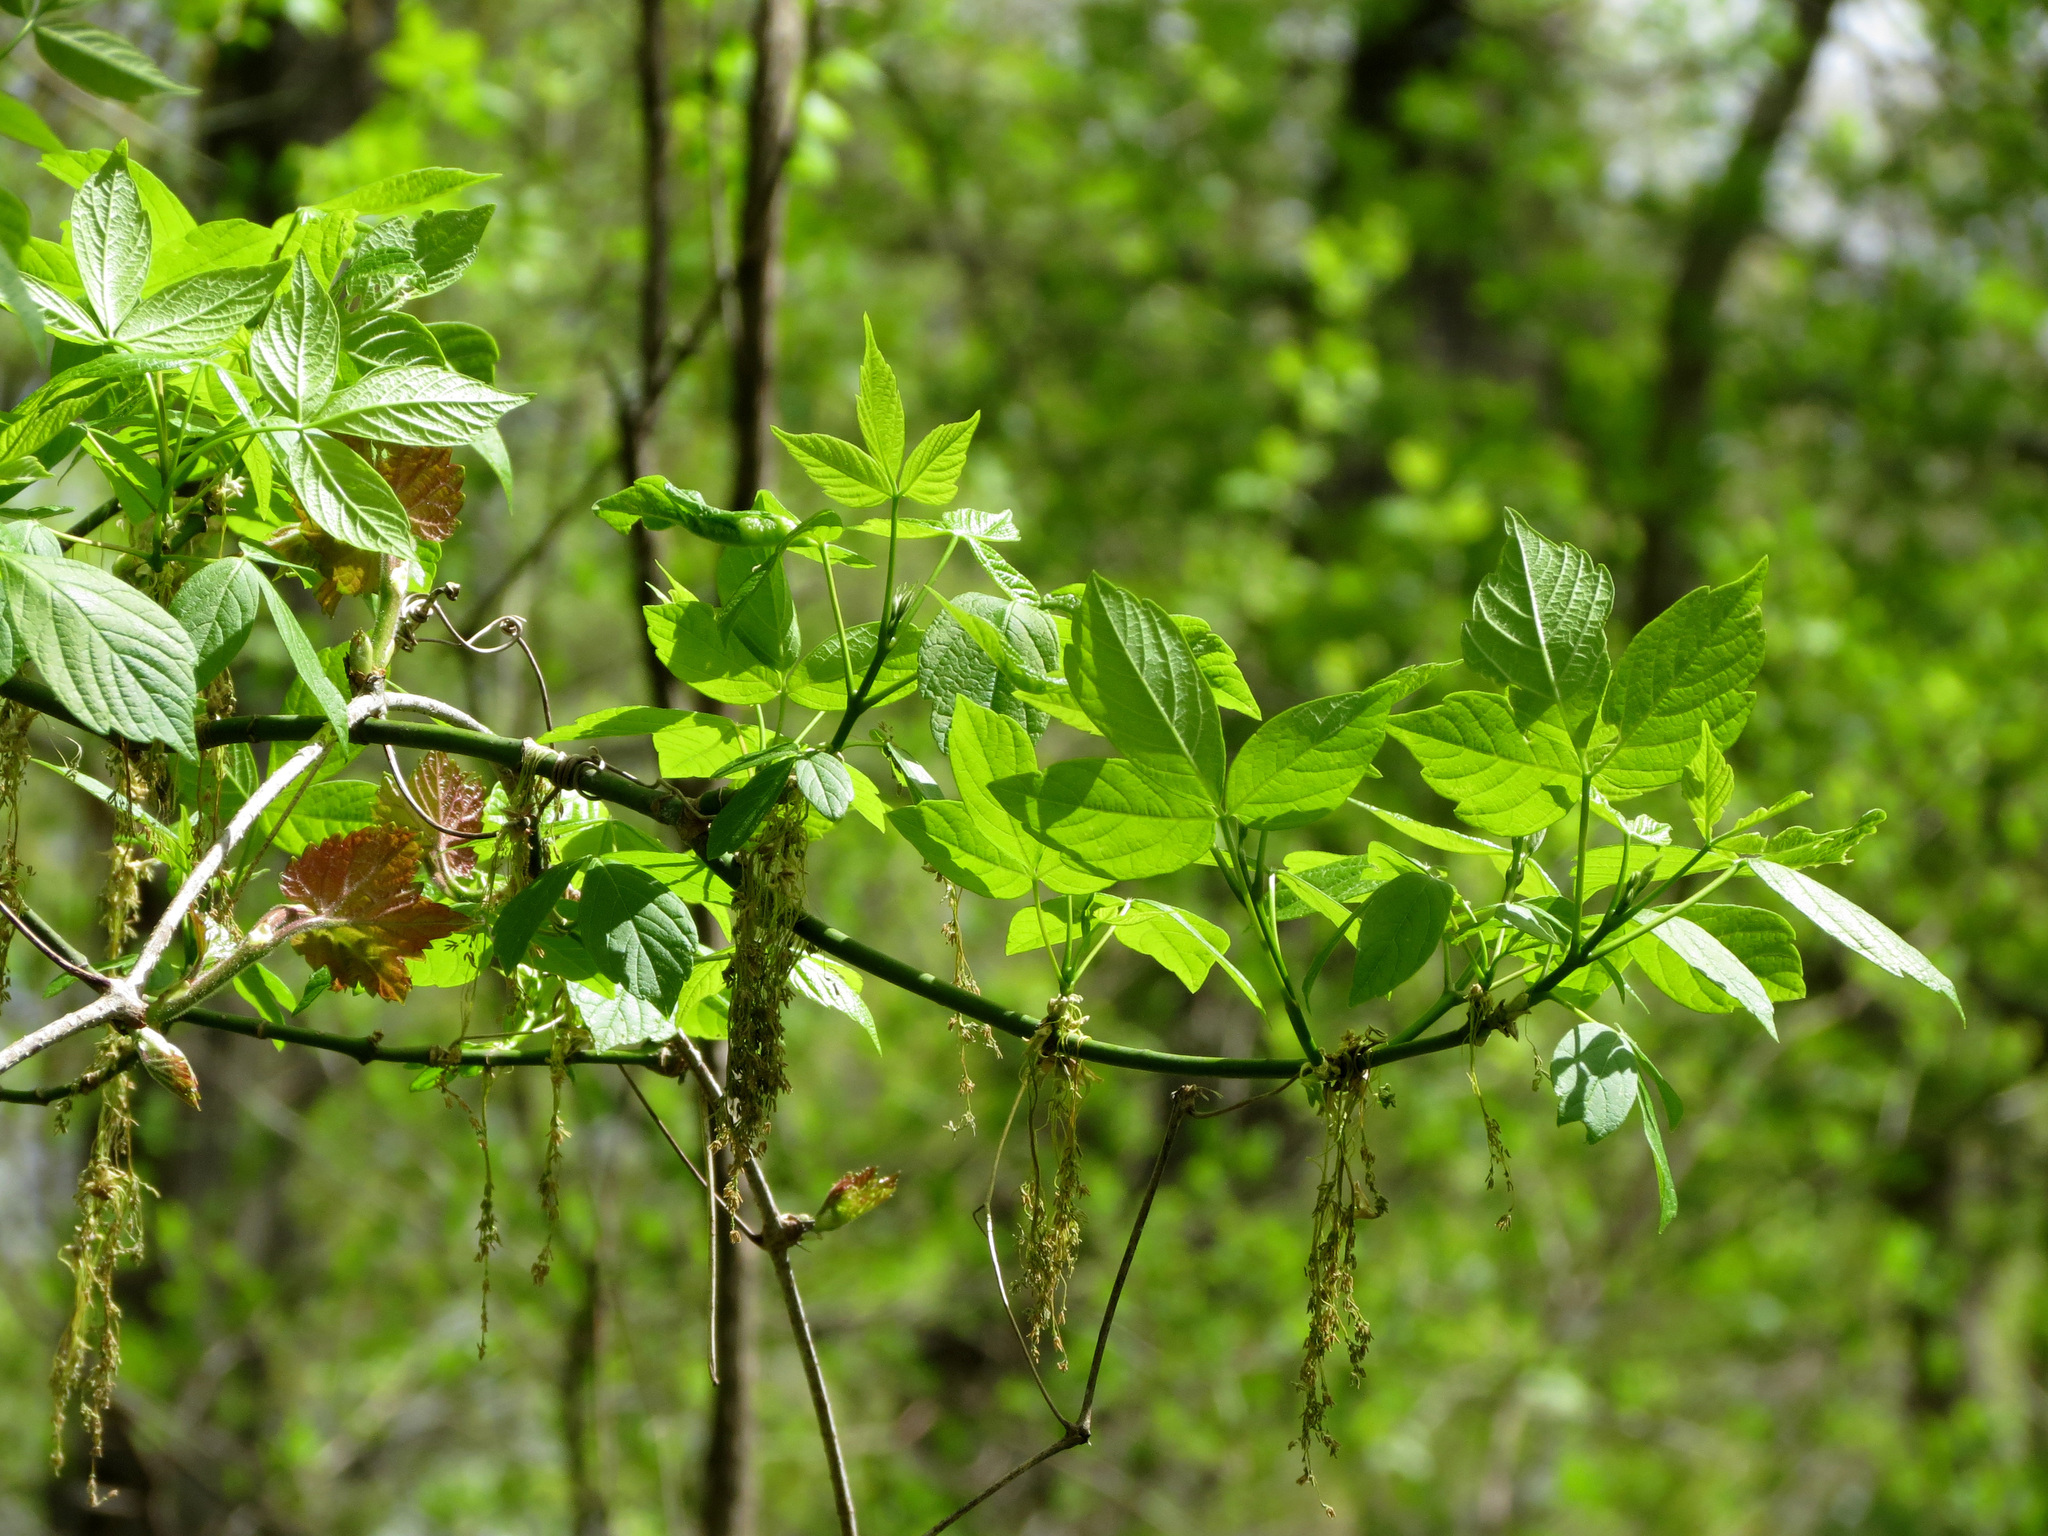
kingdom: Plantae
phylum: Tracheophyta
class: Magnoliopsida
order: Sapindales
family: Sapindaceae
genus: Acer
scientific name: Acer negundo
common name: Ashleaf maple
